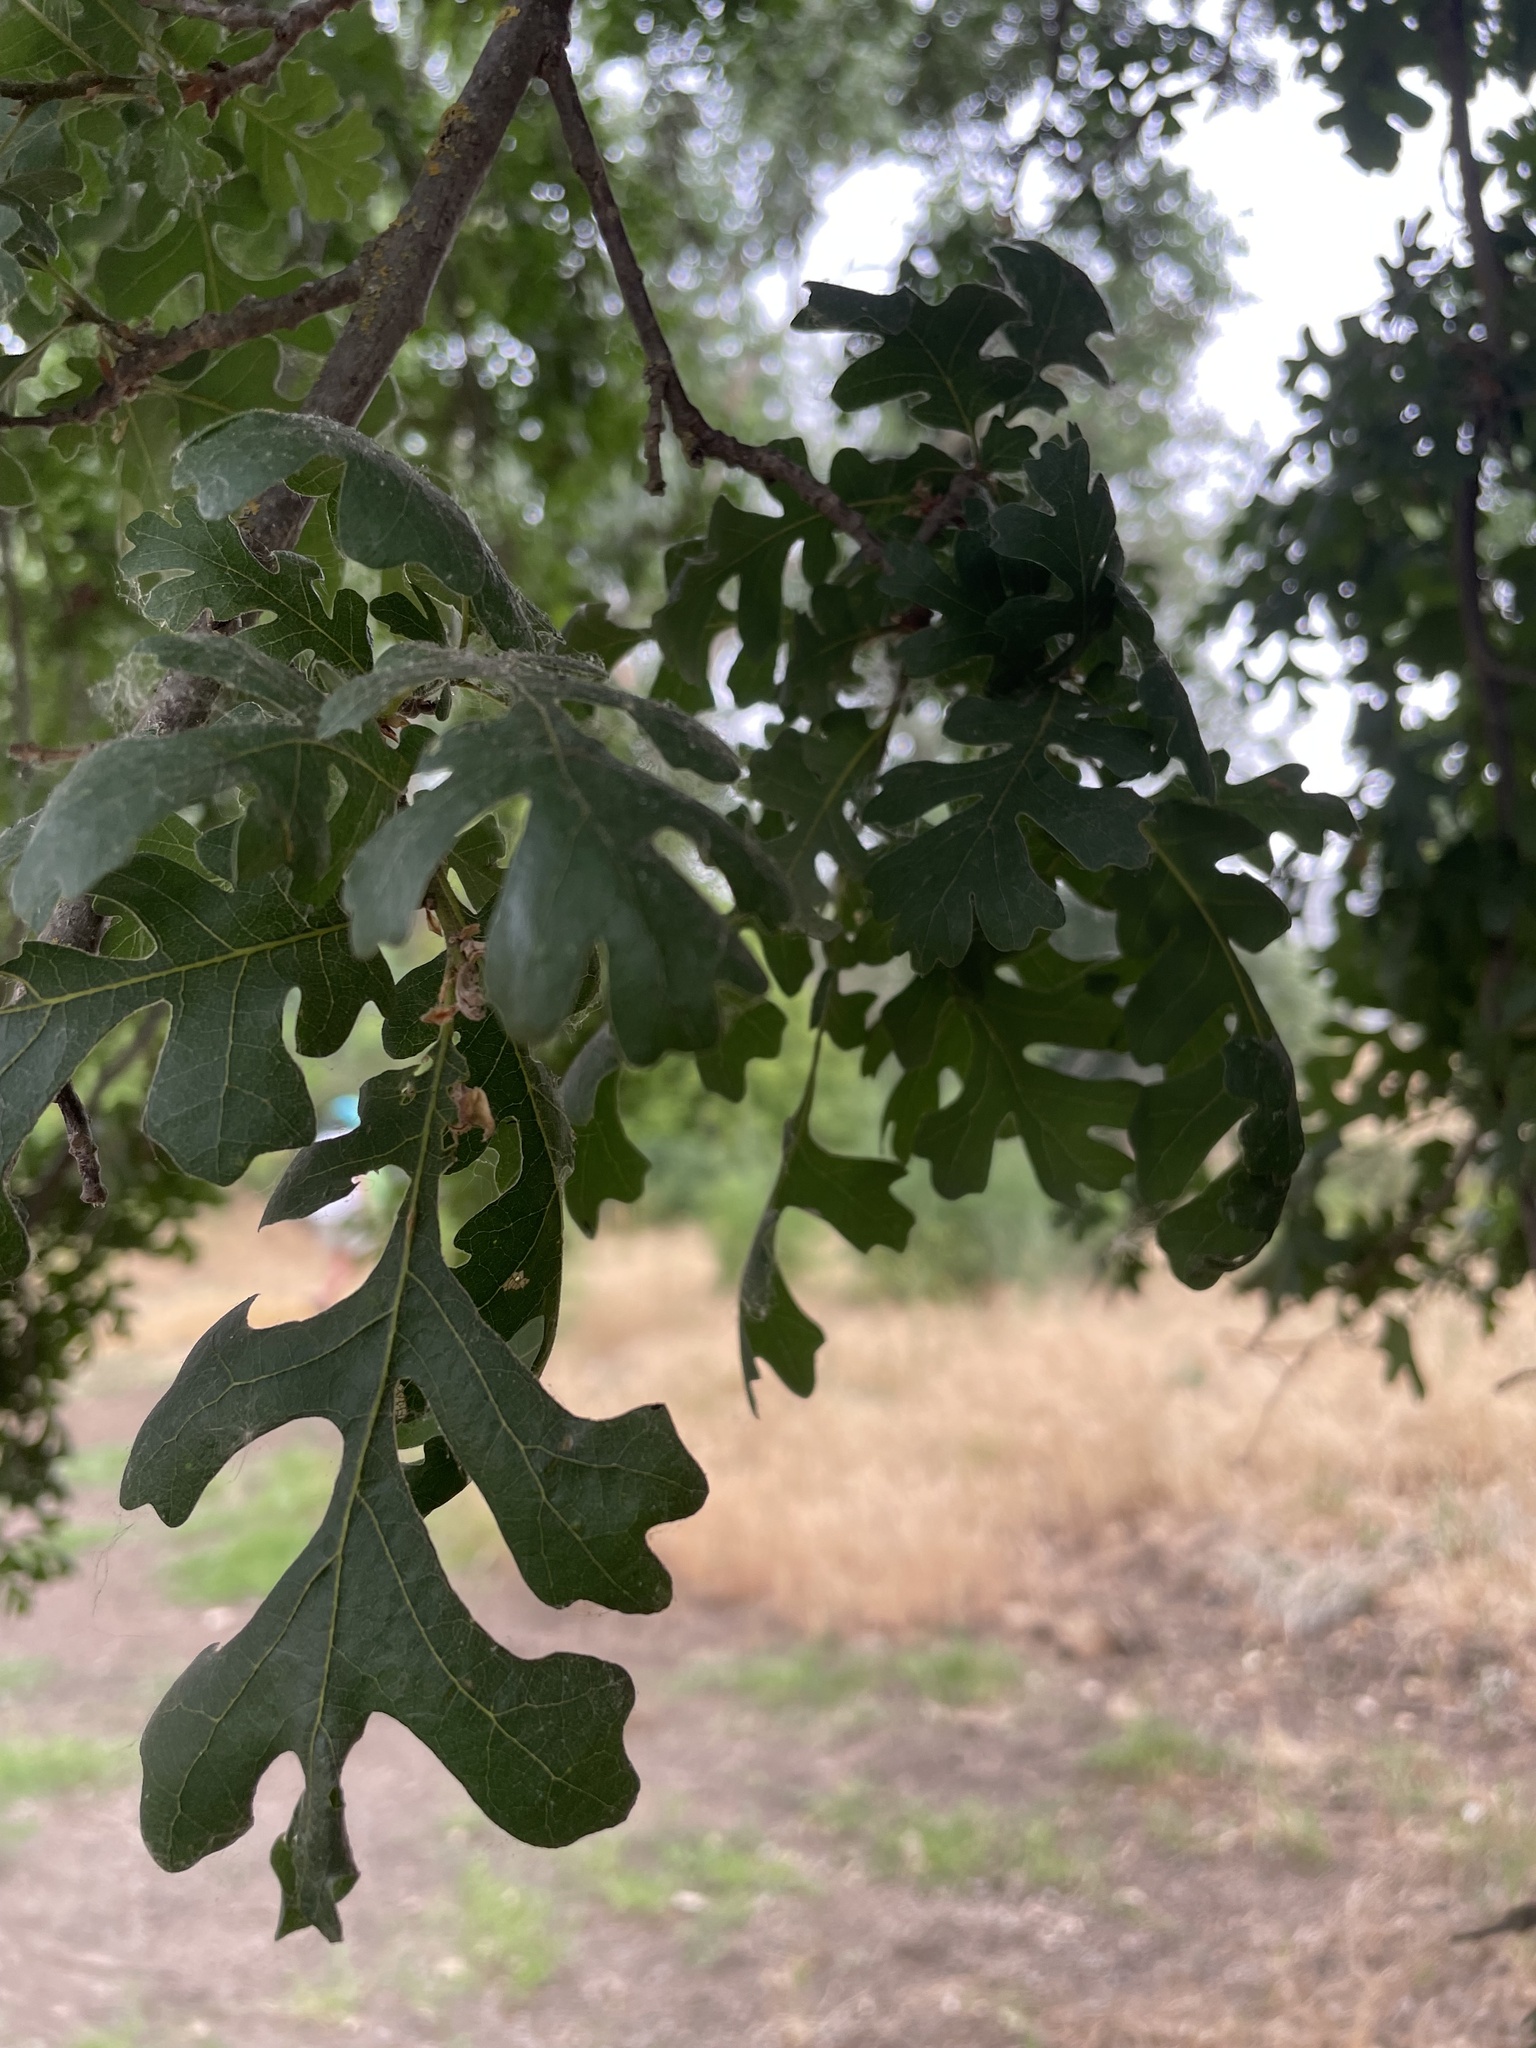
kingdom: Plantae
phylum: Tracheophyta
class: Magnoliopsida
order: Fagales
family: Fagaceae
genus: Quercus
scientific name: Quercus lobata
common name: Valley oak
